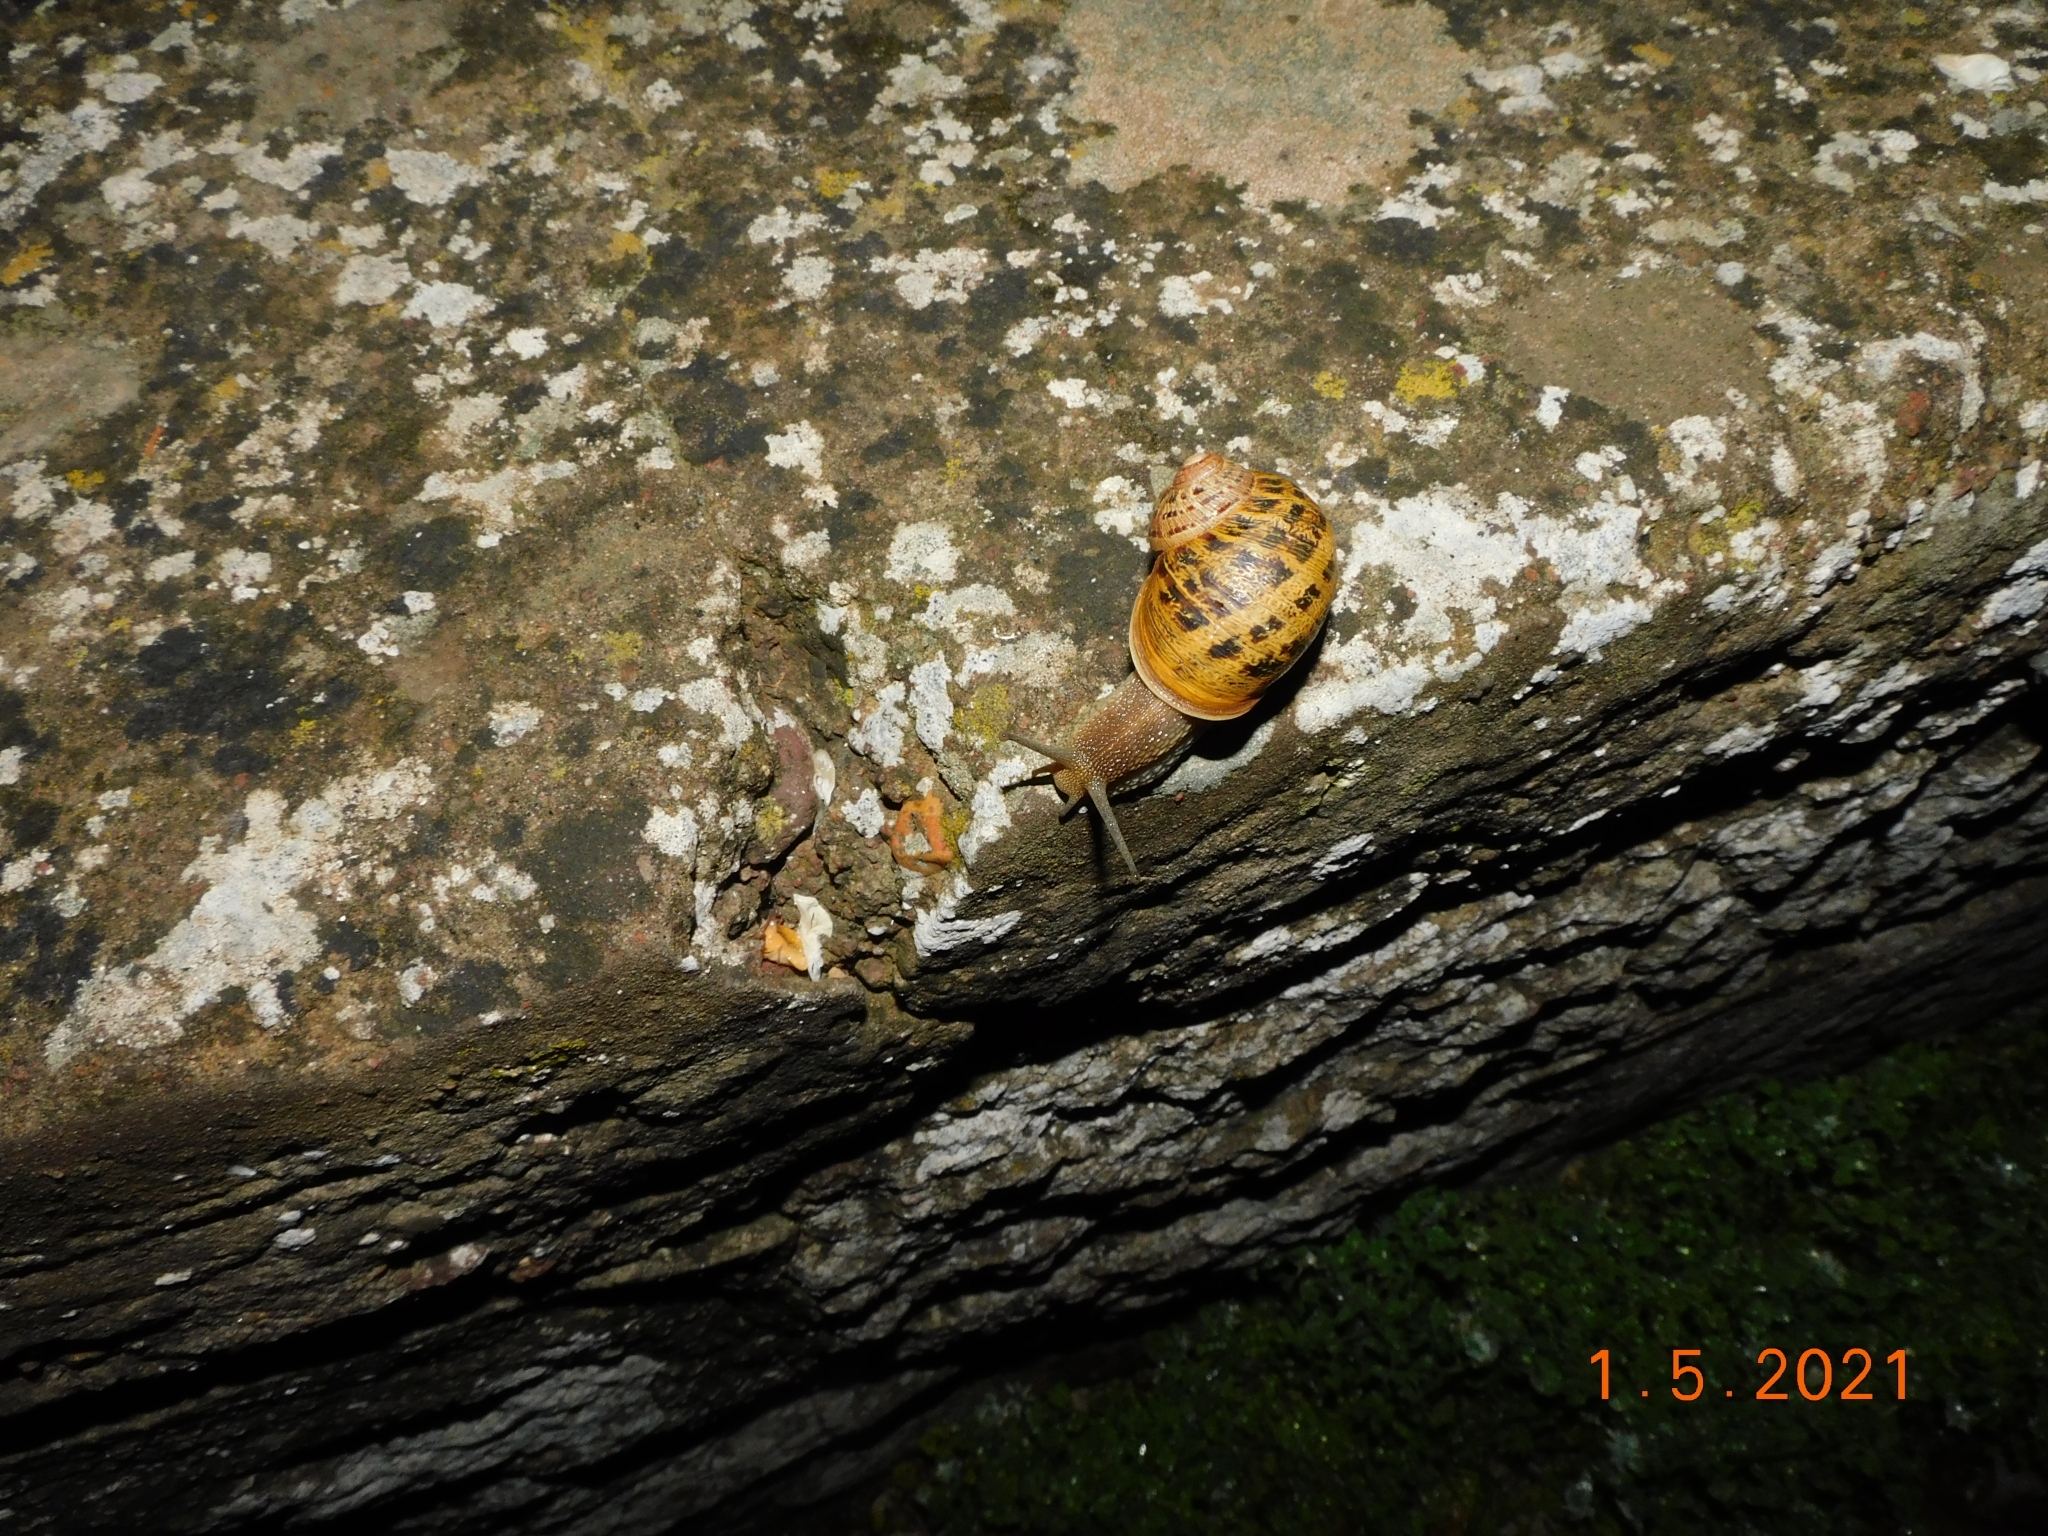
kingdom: Animalia
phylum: Mollusca
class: Gastropoda
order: Stylommatophora
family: Helicidae
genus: Cornu
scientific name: Cornu aspersum
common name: Brown garden snail
